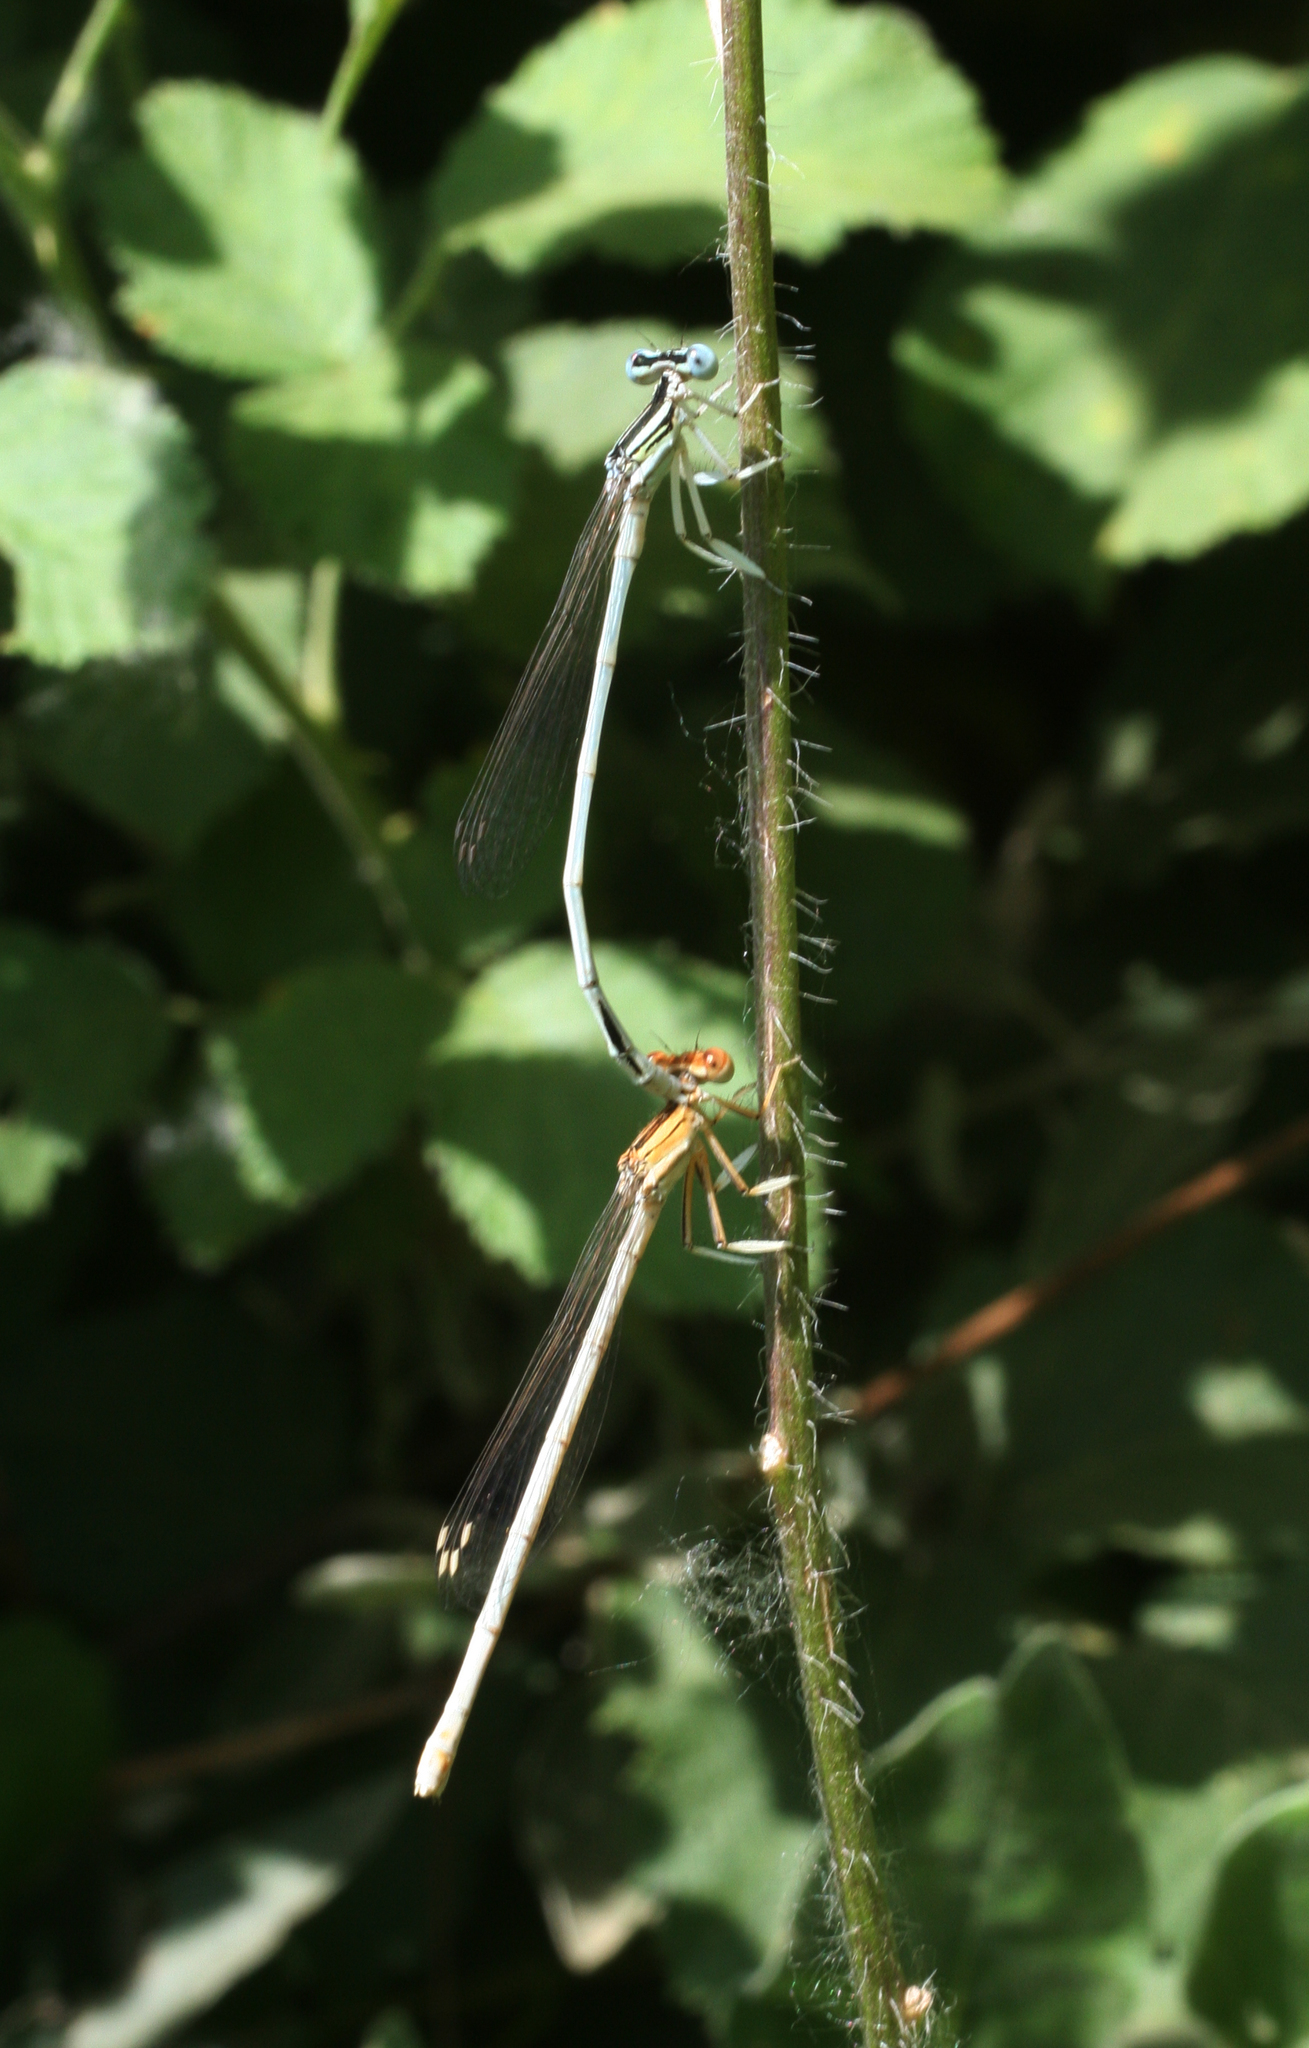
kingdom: Animalia
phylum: Arthropoda
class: Insecta
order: Odonata
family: Platycnemididae
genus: Platycnemis
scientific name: Platycnemis dealbata
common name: Ivory featherleg
